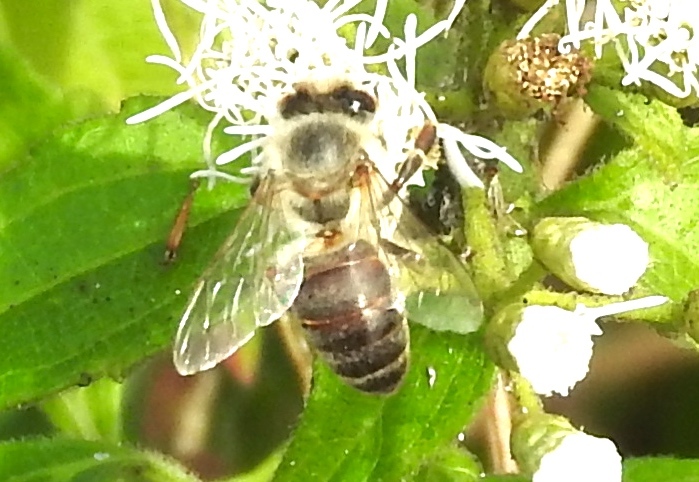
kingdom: Animalia
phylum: Arthropoda
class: Insecta
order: Hymenoptera
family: Apidae
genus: Apis
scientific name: Apis mellifera
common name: Honey bee
